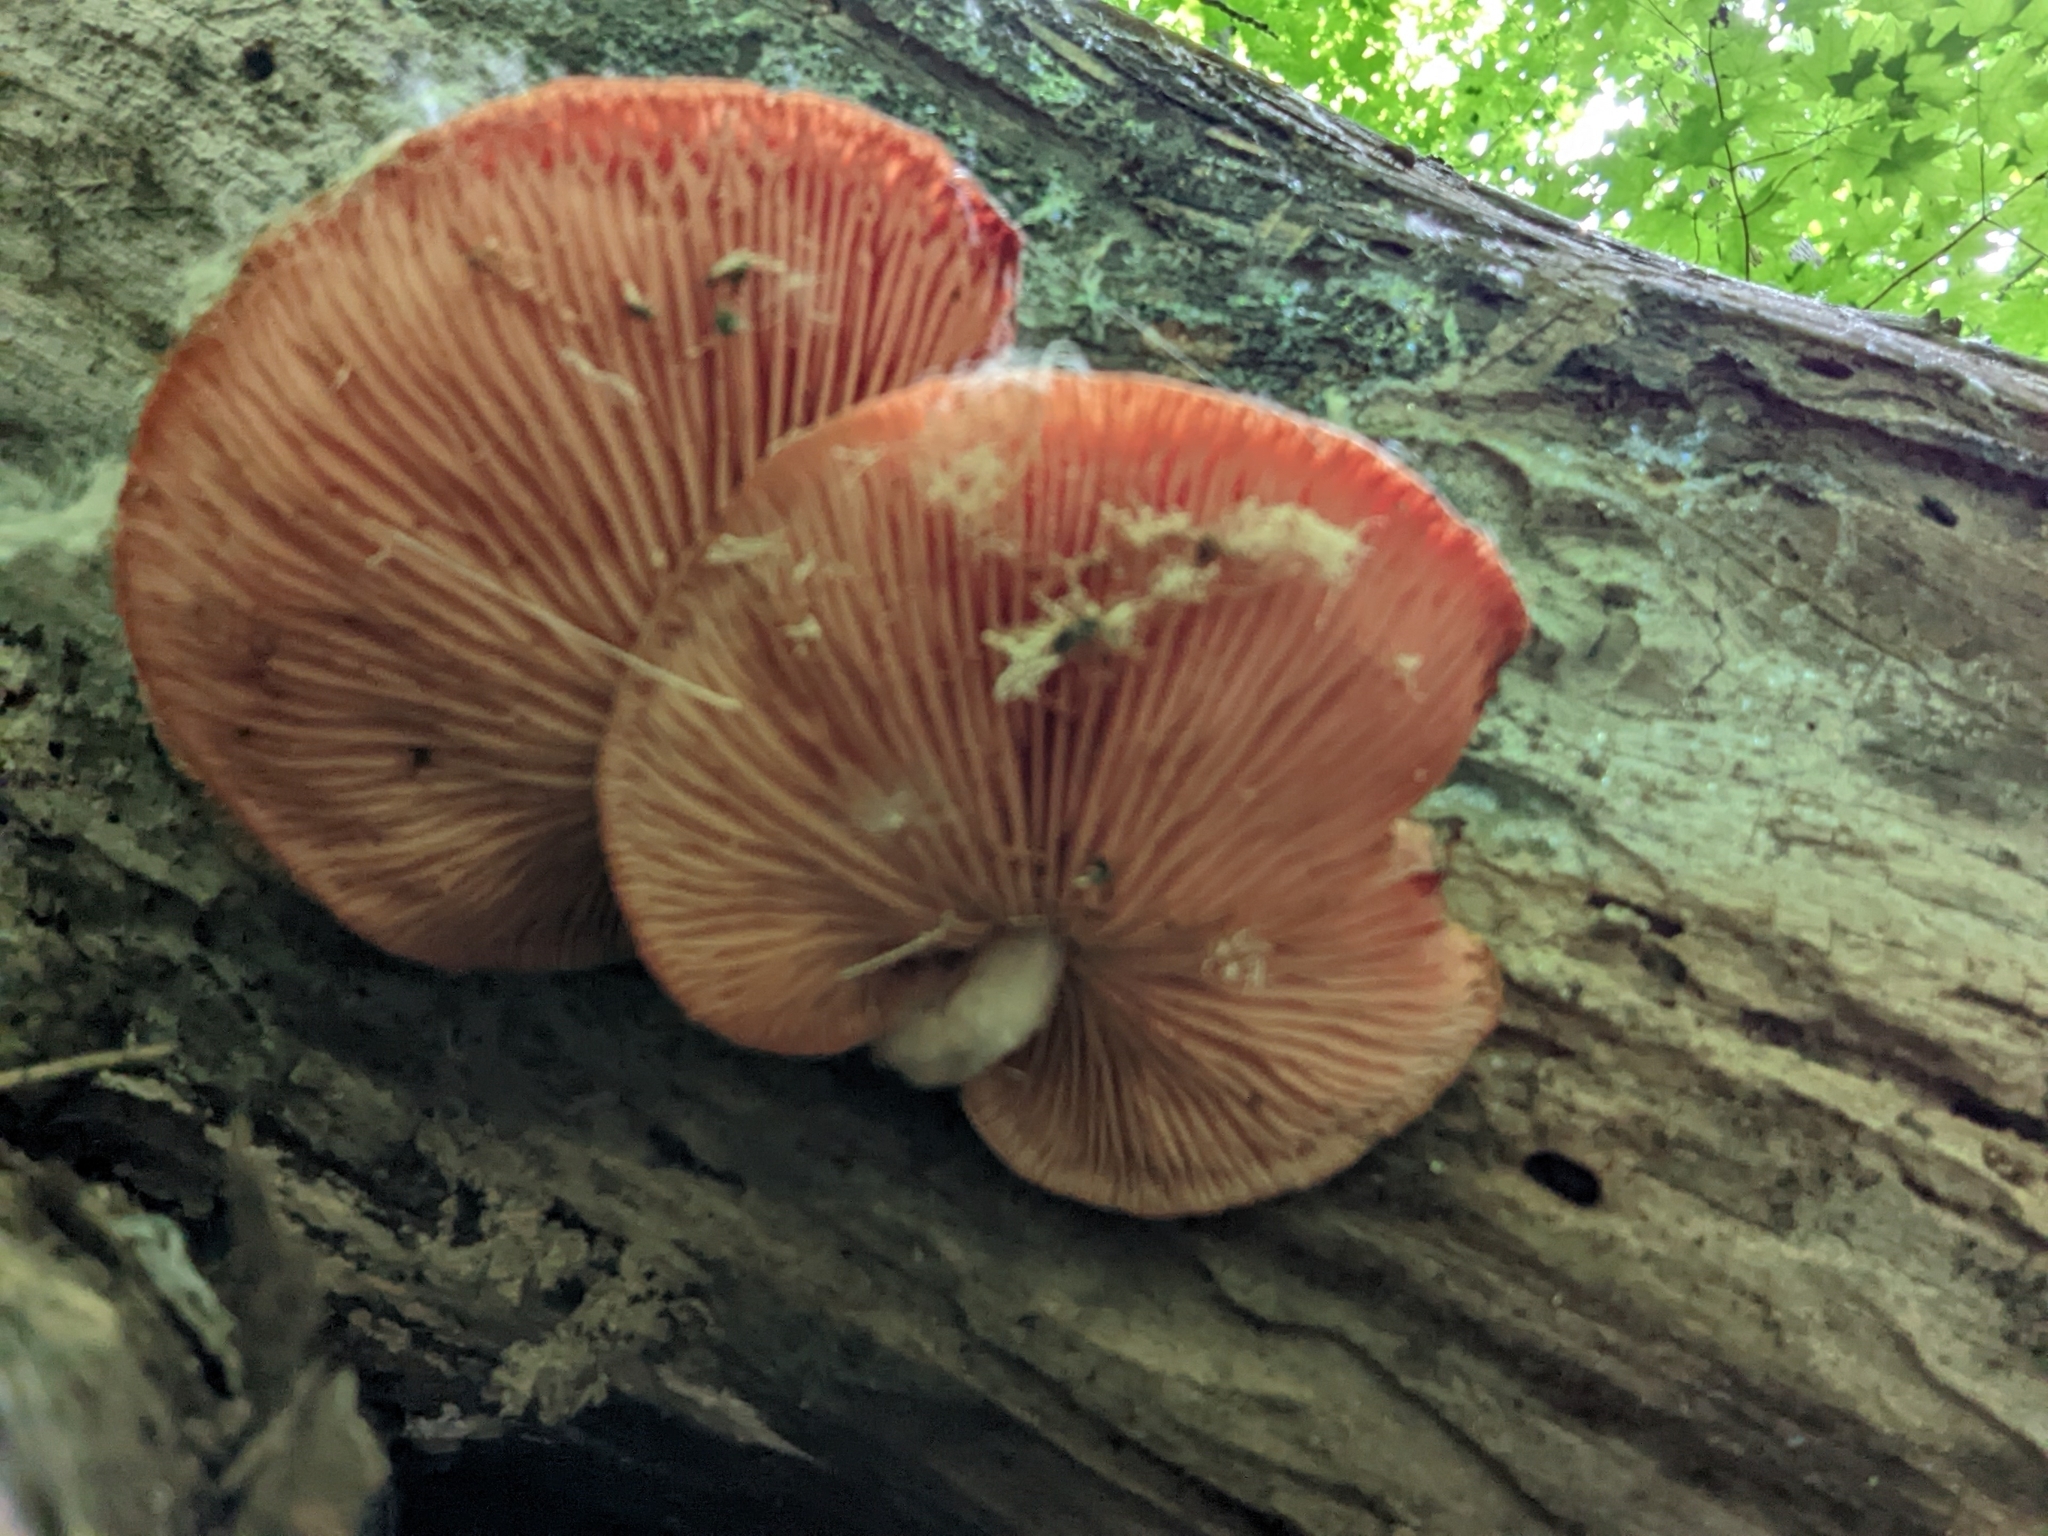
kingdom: Fungi
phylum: Basidiomycota
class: Agaricomycetes
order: Agaricales
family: Physalacriaceae
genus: Rhodotus
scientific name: Rhodotus palmatus
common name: Wrinkled peach
